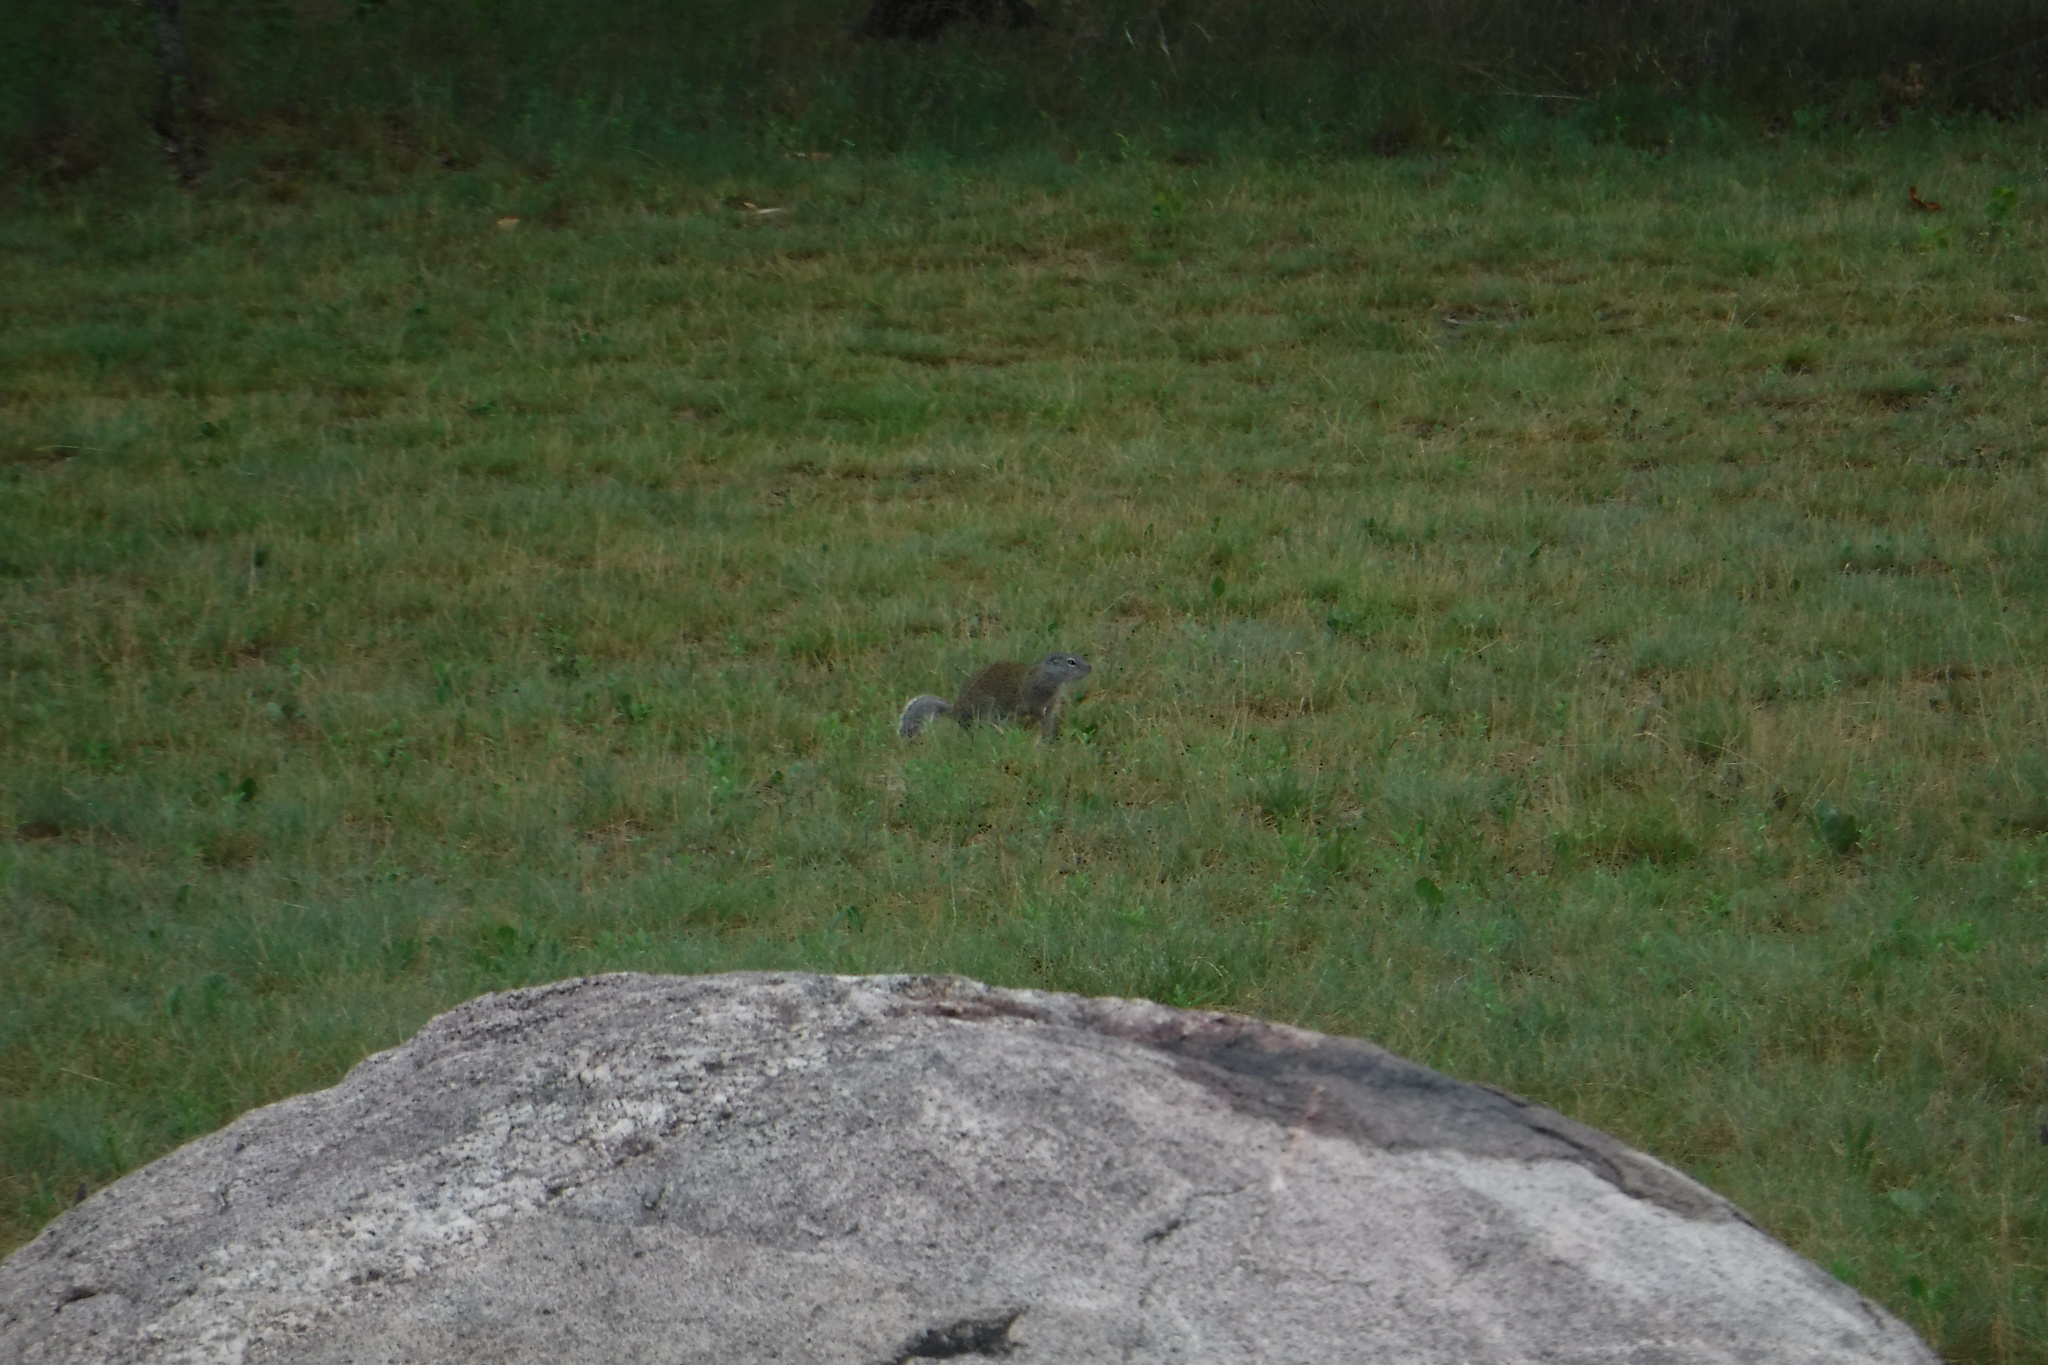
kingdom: Animalia
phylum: Chordata
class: Mammalia
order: Rodentia
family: Sciuridae
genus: Poliocitellus
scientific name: Poliocitellus franklinii
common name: Franklin's ground squirrel
